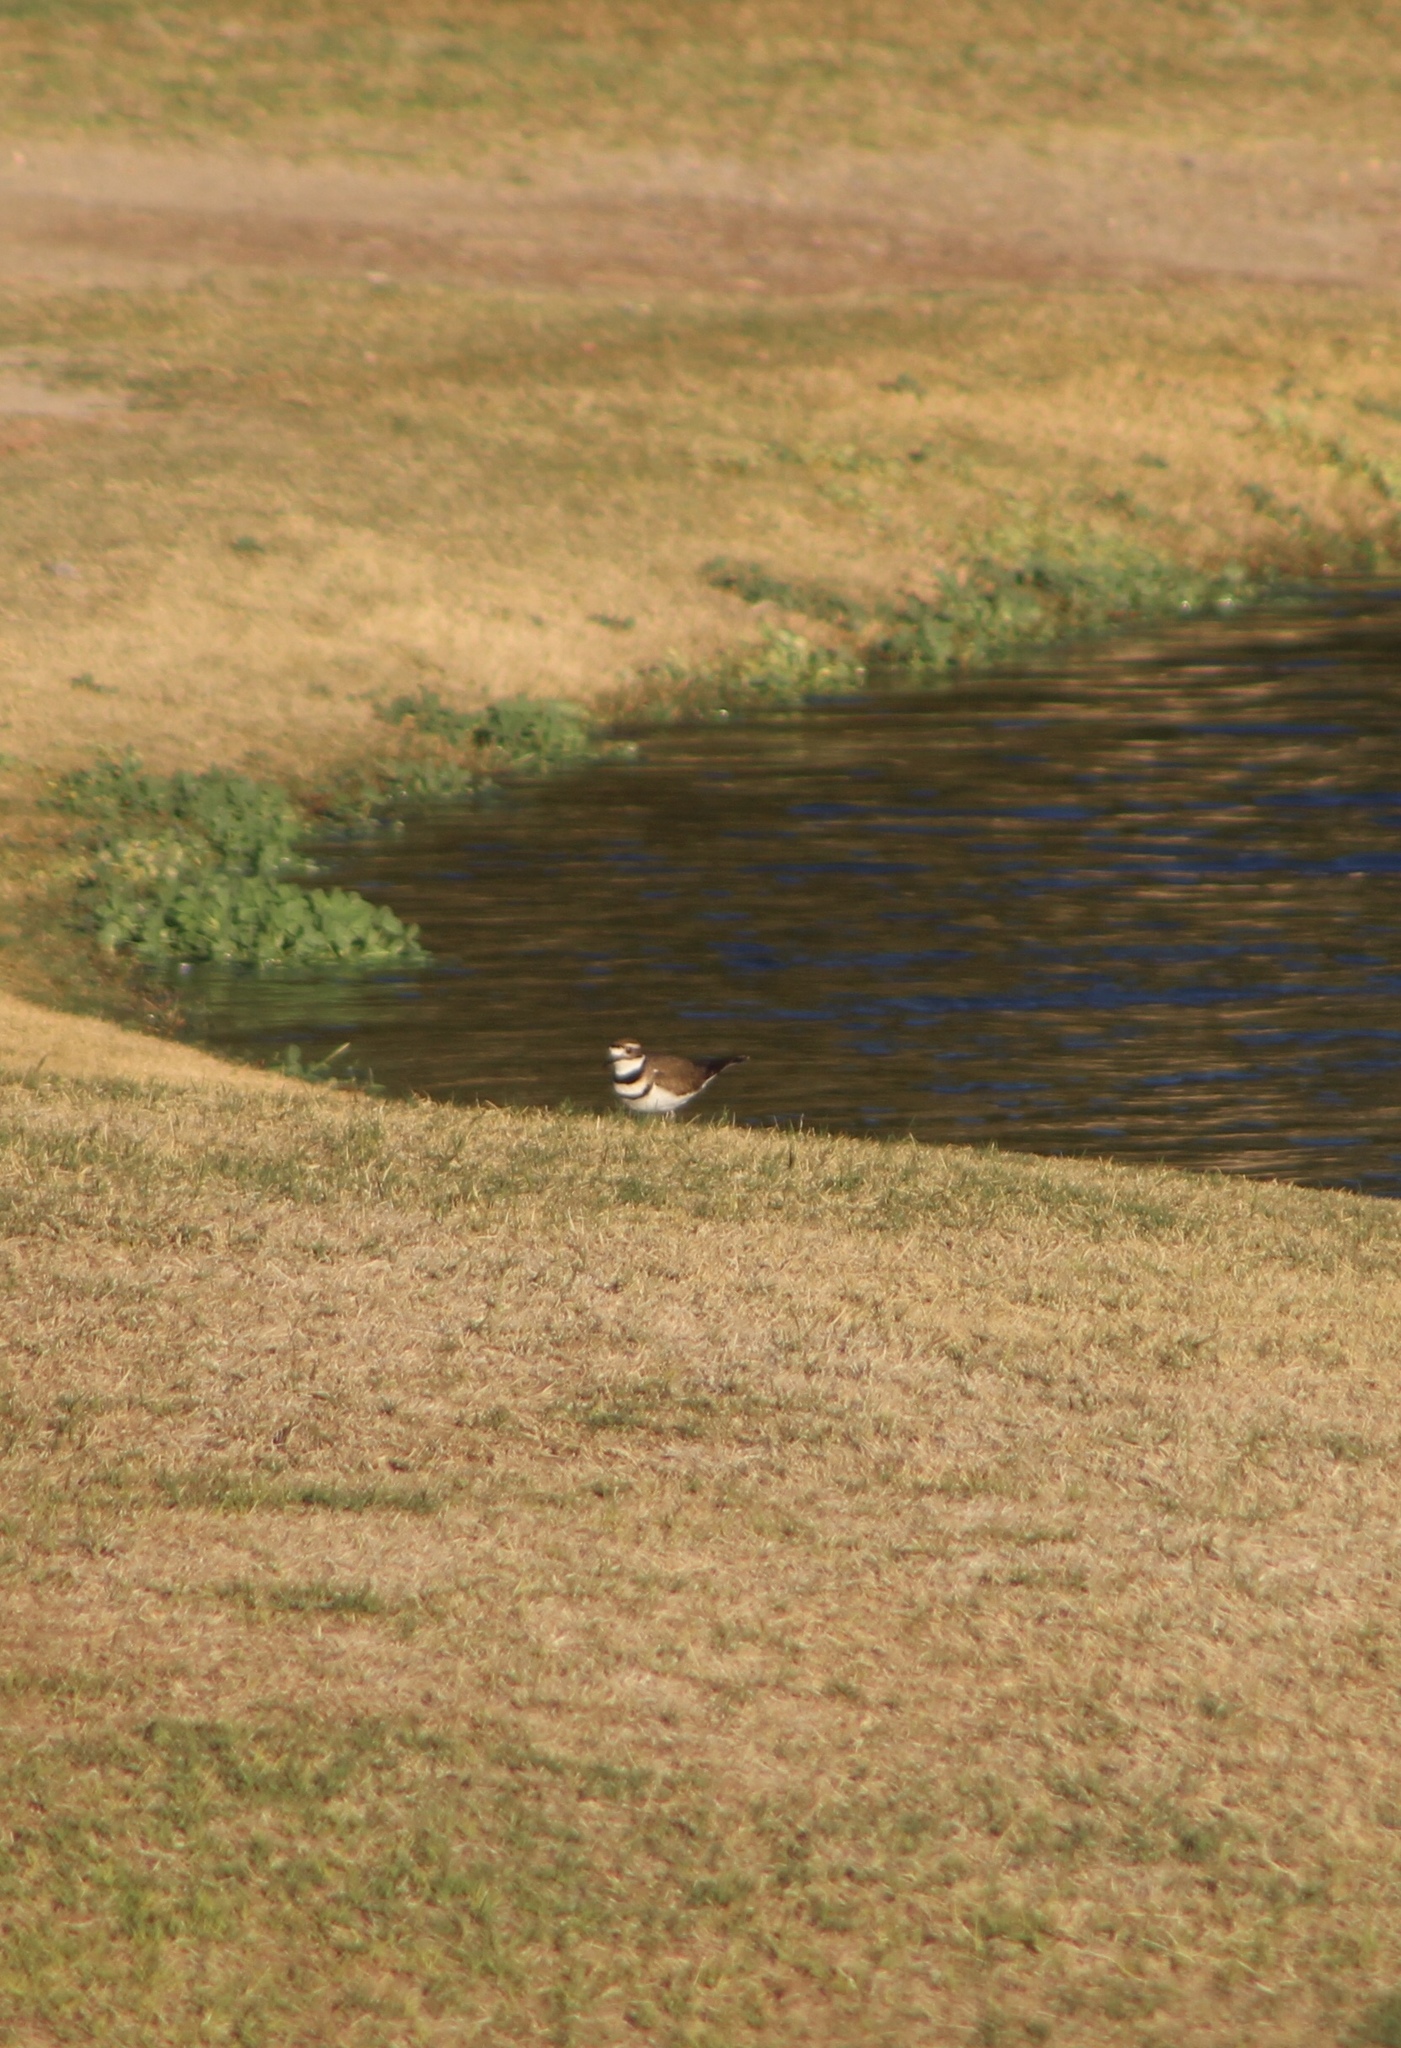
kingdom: Animalia
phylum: Chordata
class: Aves
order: Charadriiformes
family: Charadriidae
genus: Charadrius
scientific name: Charadrius vociferus
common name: Killdeer
